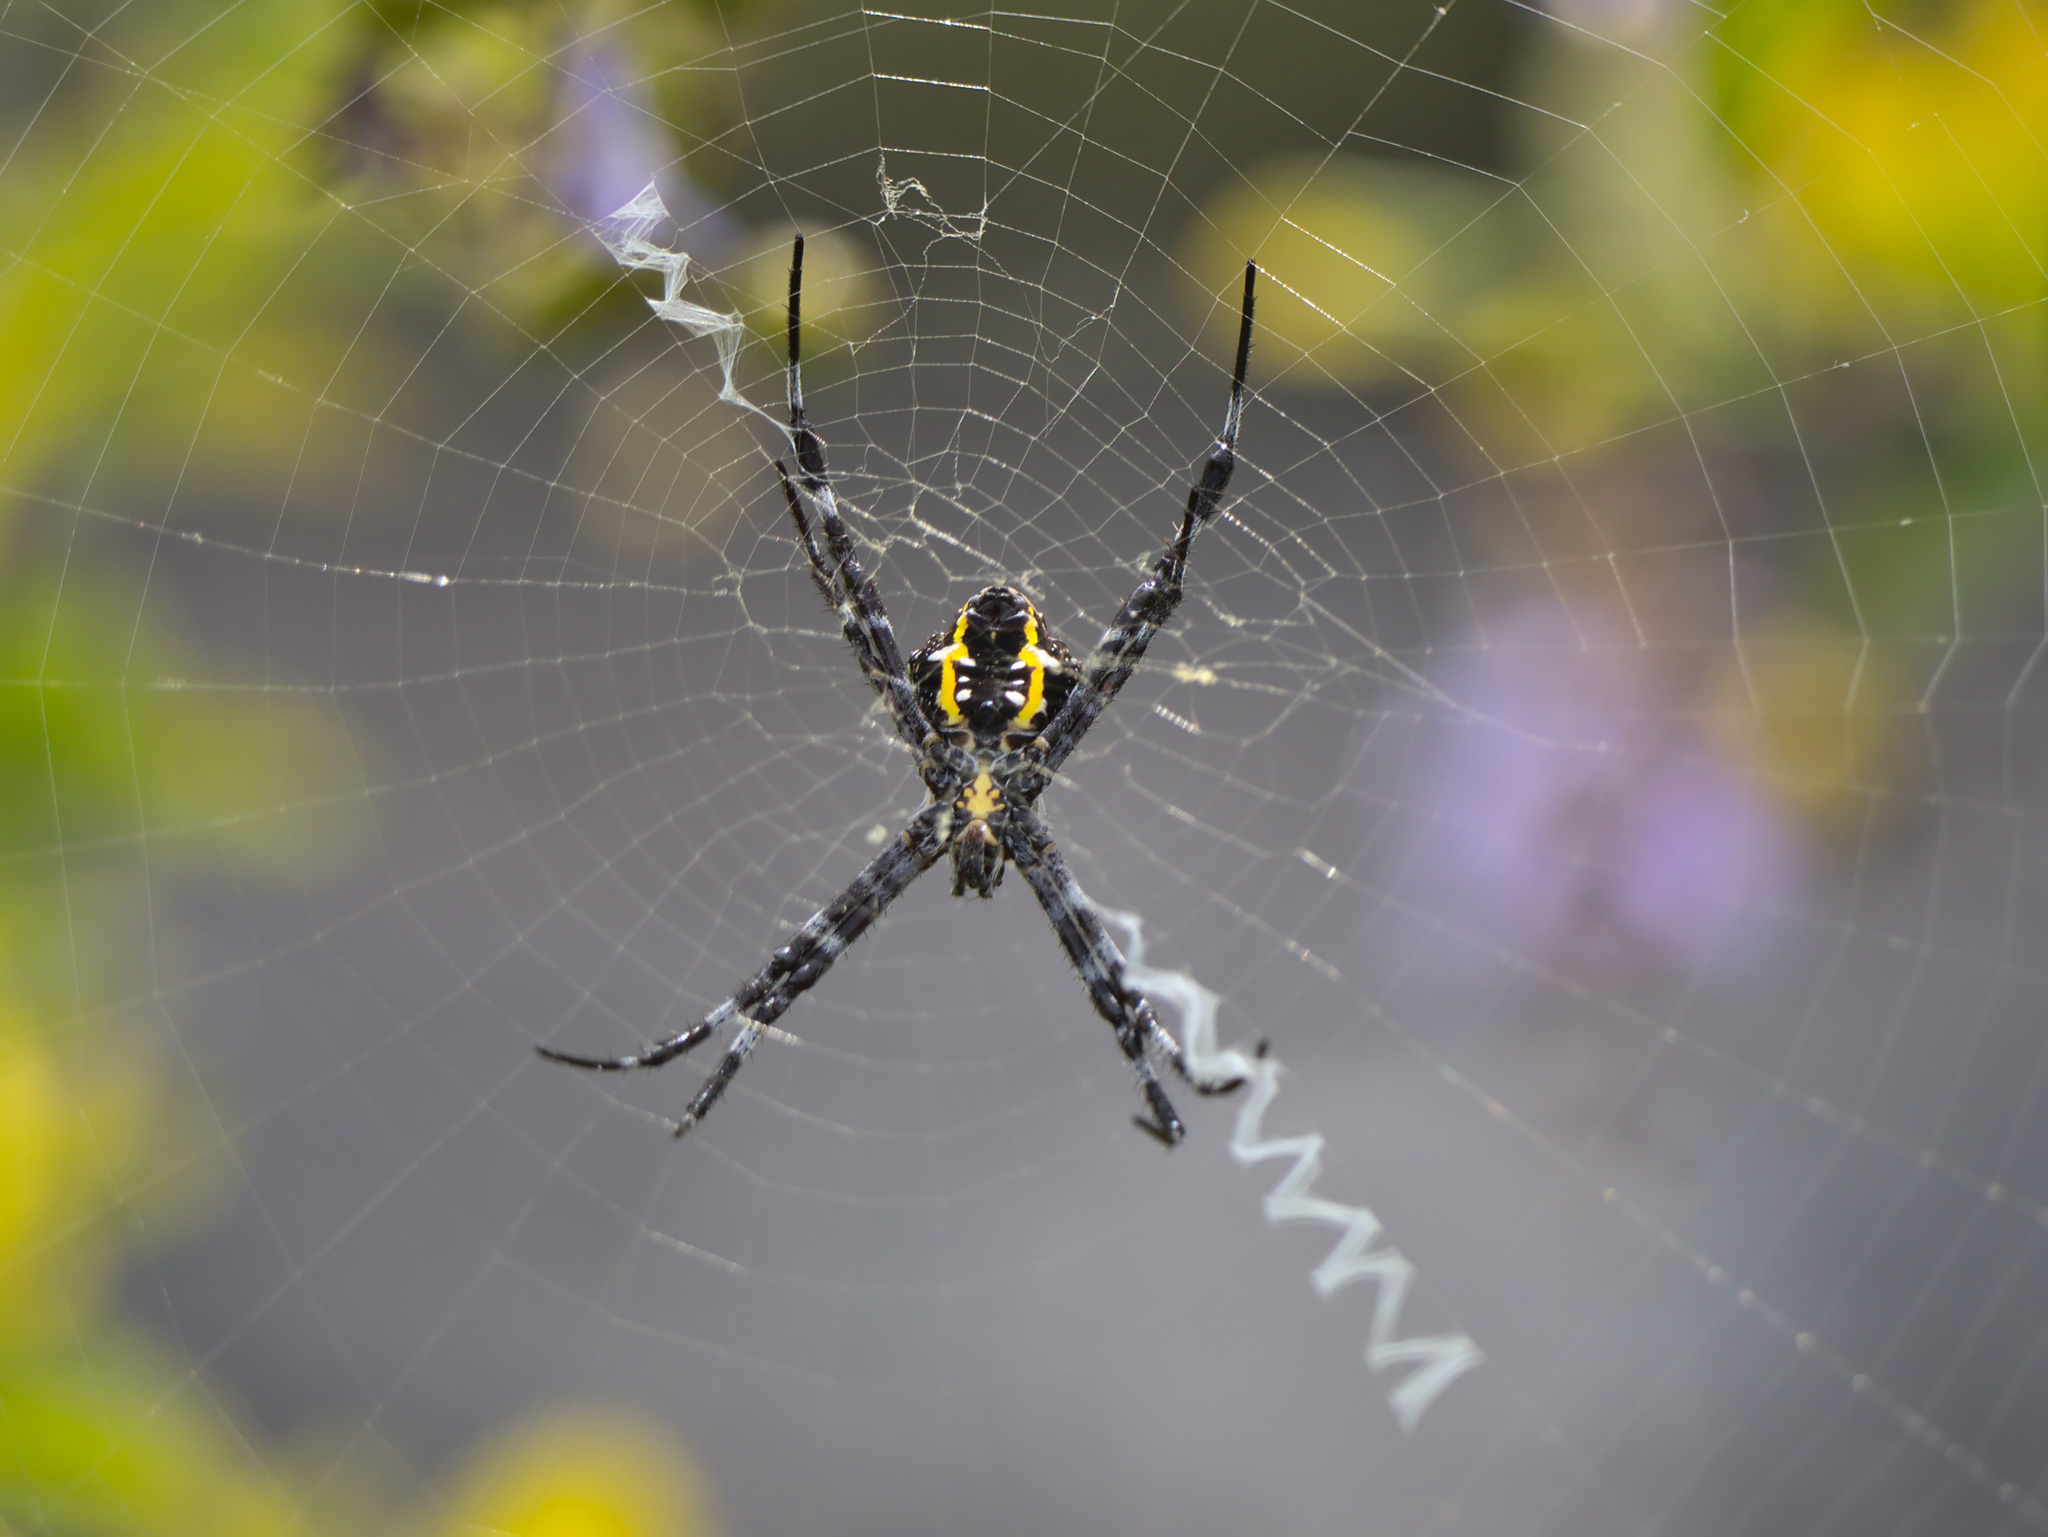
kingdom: Animalia
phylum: Arthropoda
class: Arachnida
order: Araneae
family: Araneidae
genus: Argiope
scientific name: Argiope appensa
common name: Garden spider
